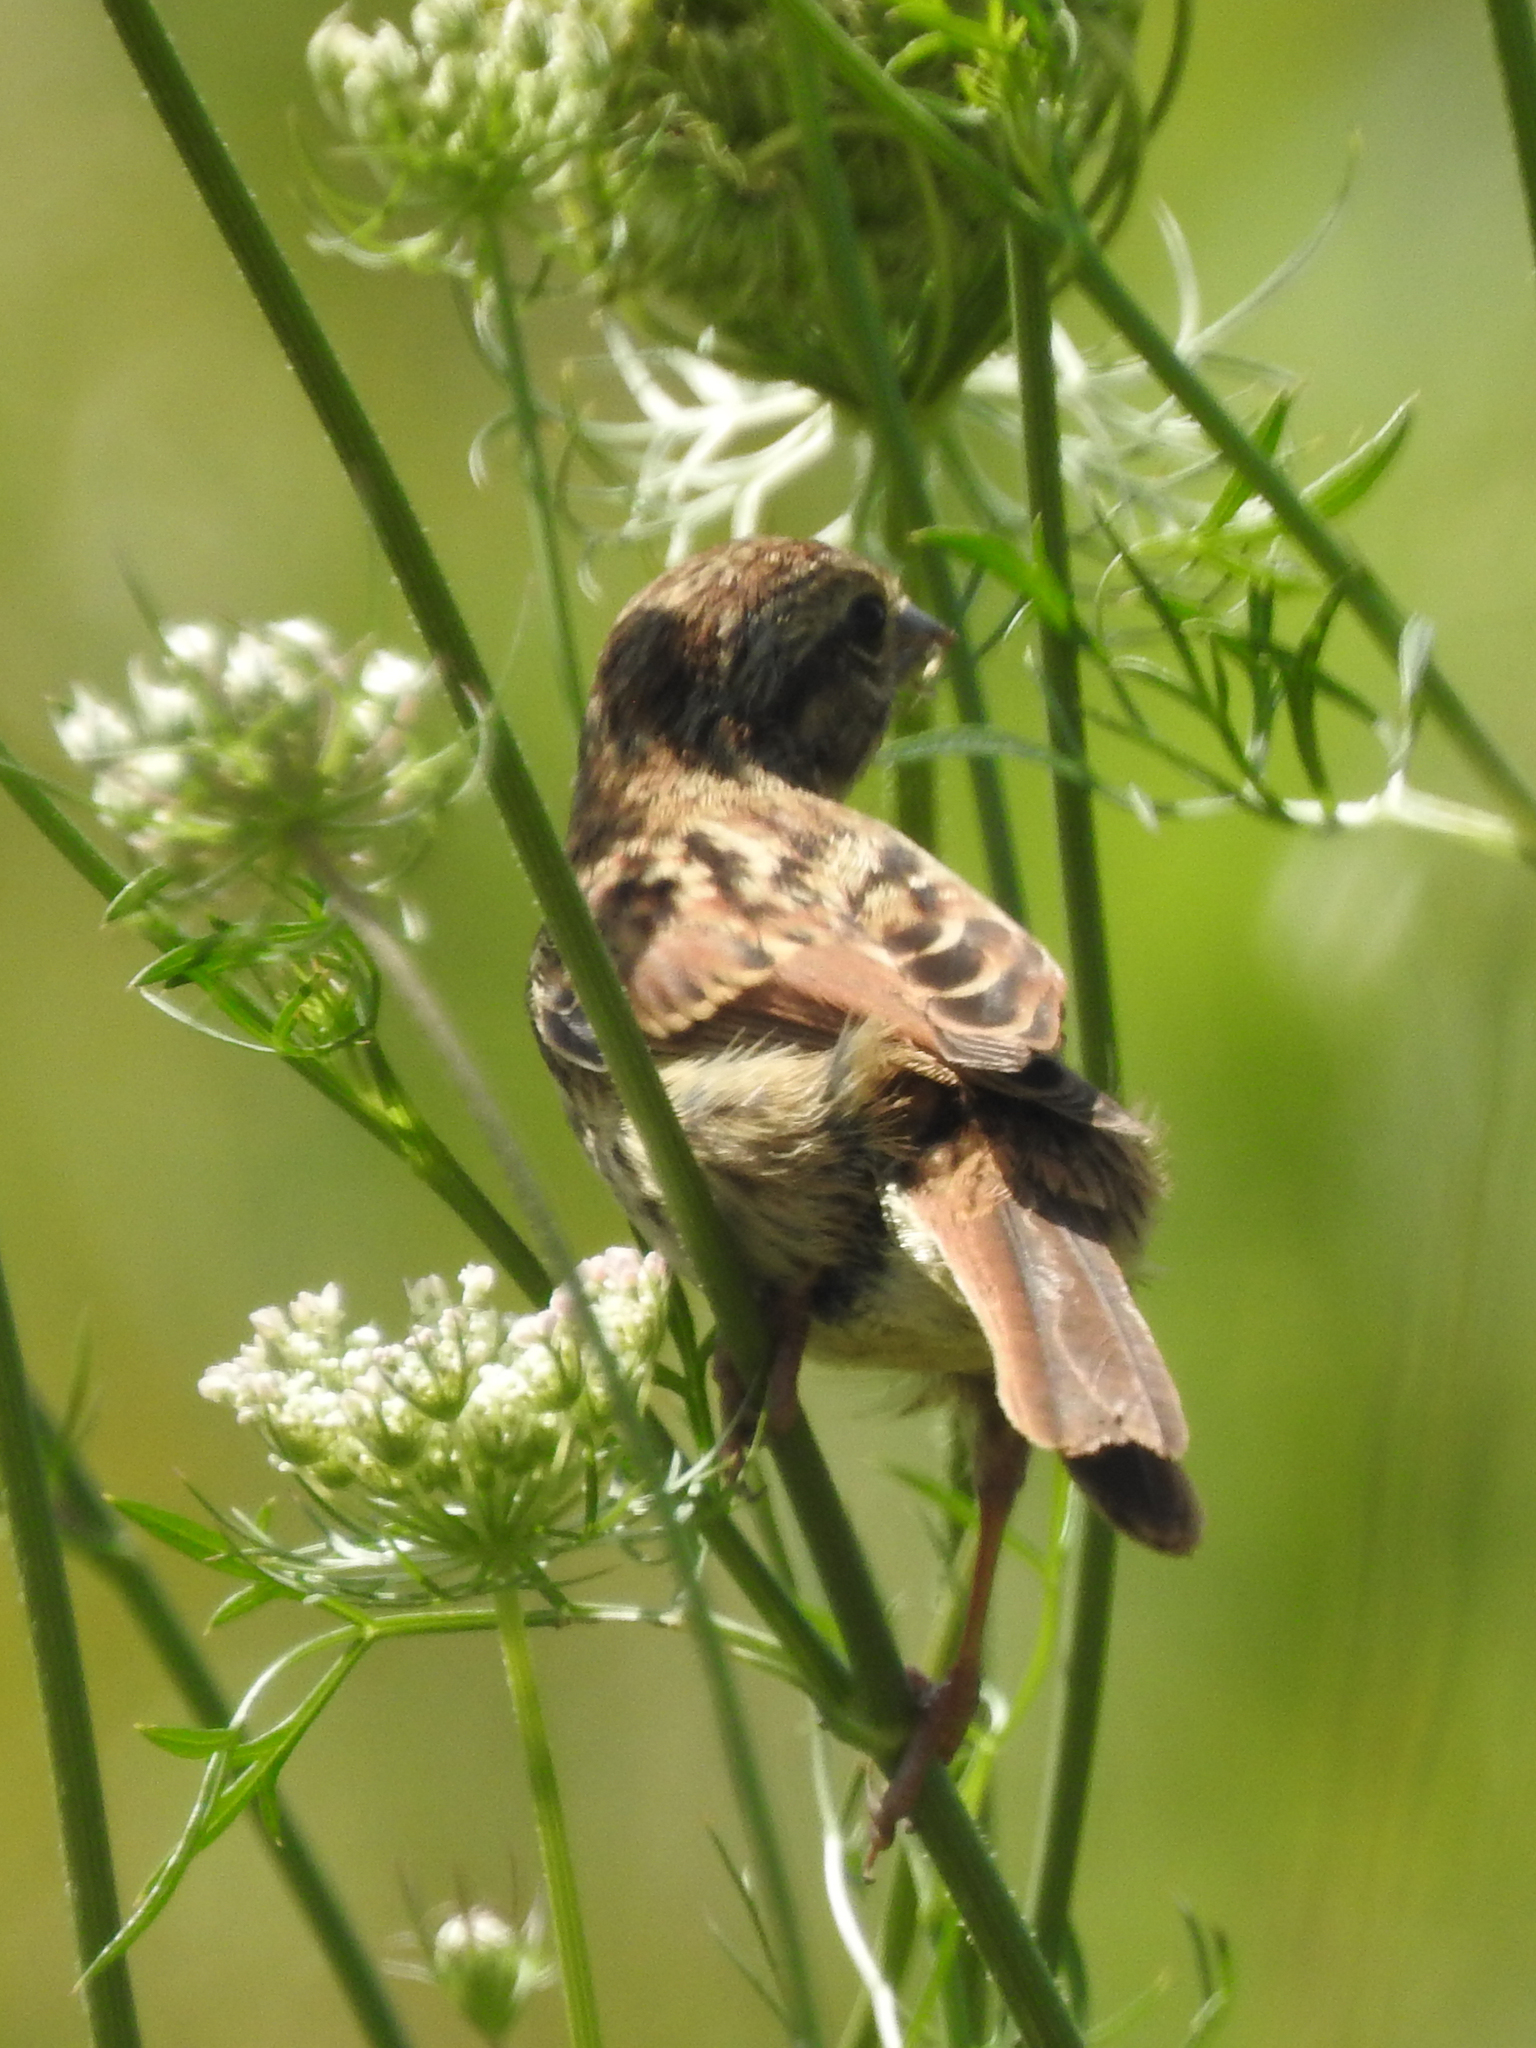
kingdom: Animalia
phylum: Chordata
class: Aves
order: Passeriformes
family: Passerellidae
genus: Melospiza
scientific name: Melospiza melodia
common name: Song sparrow
